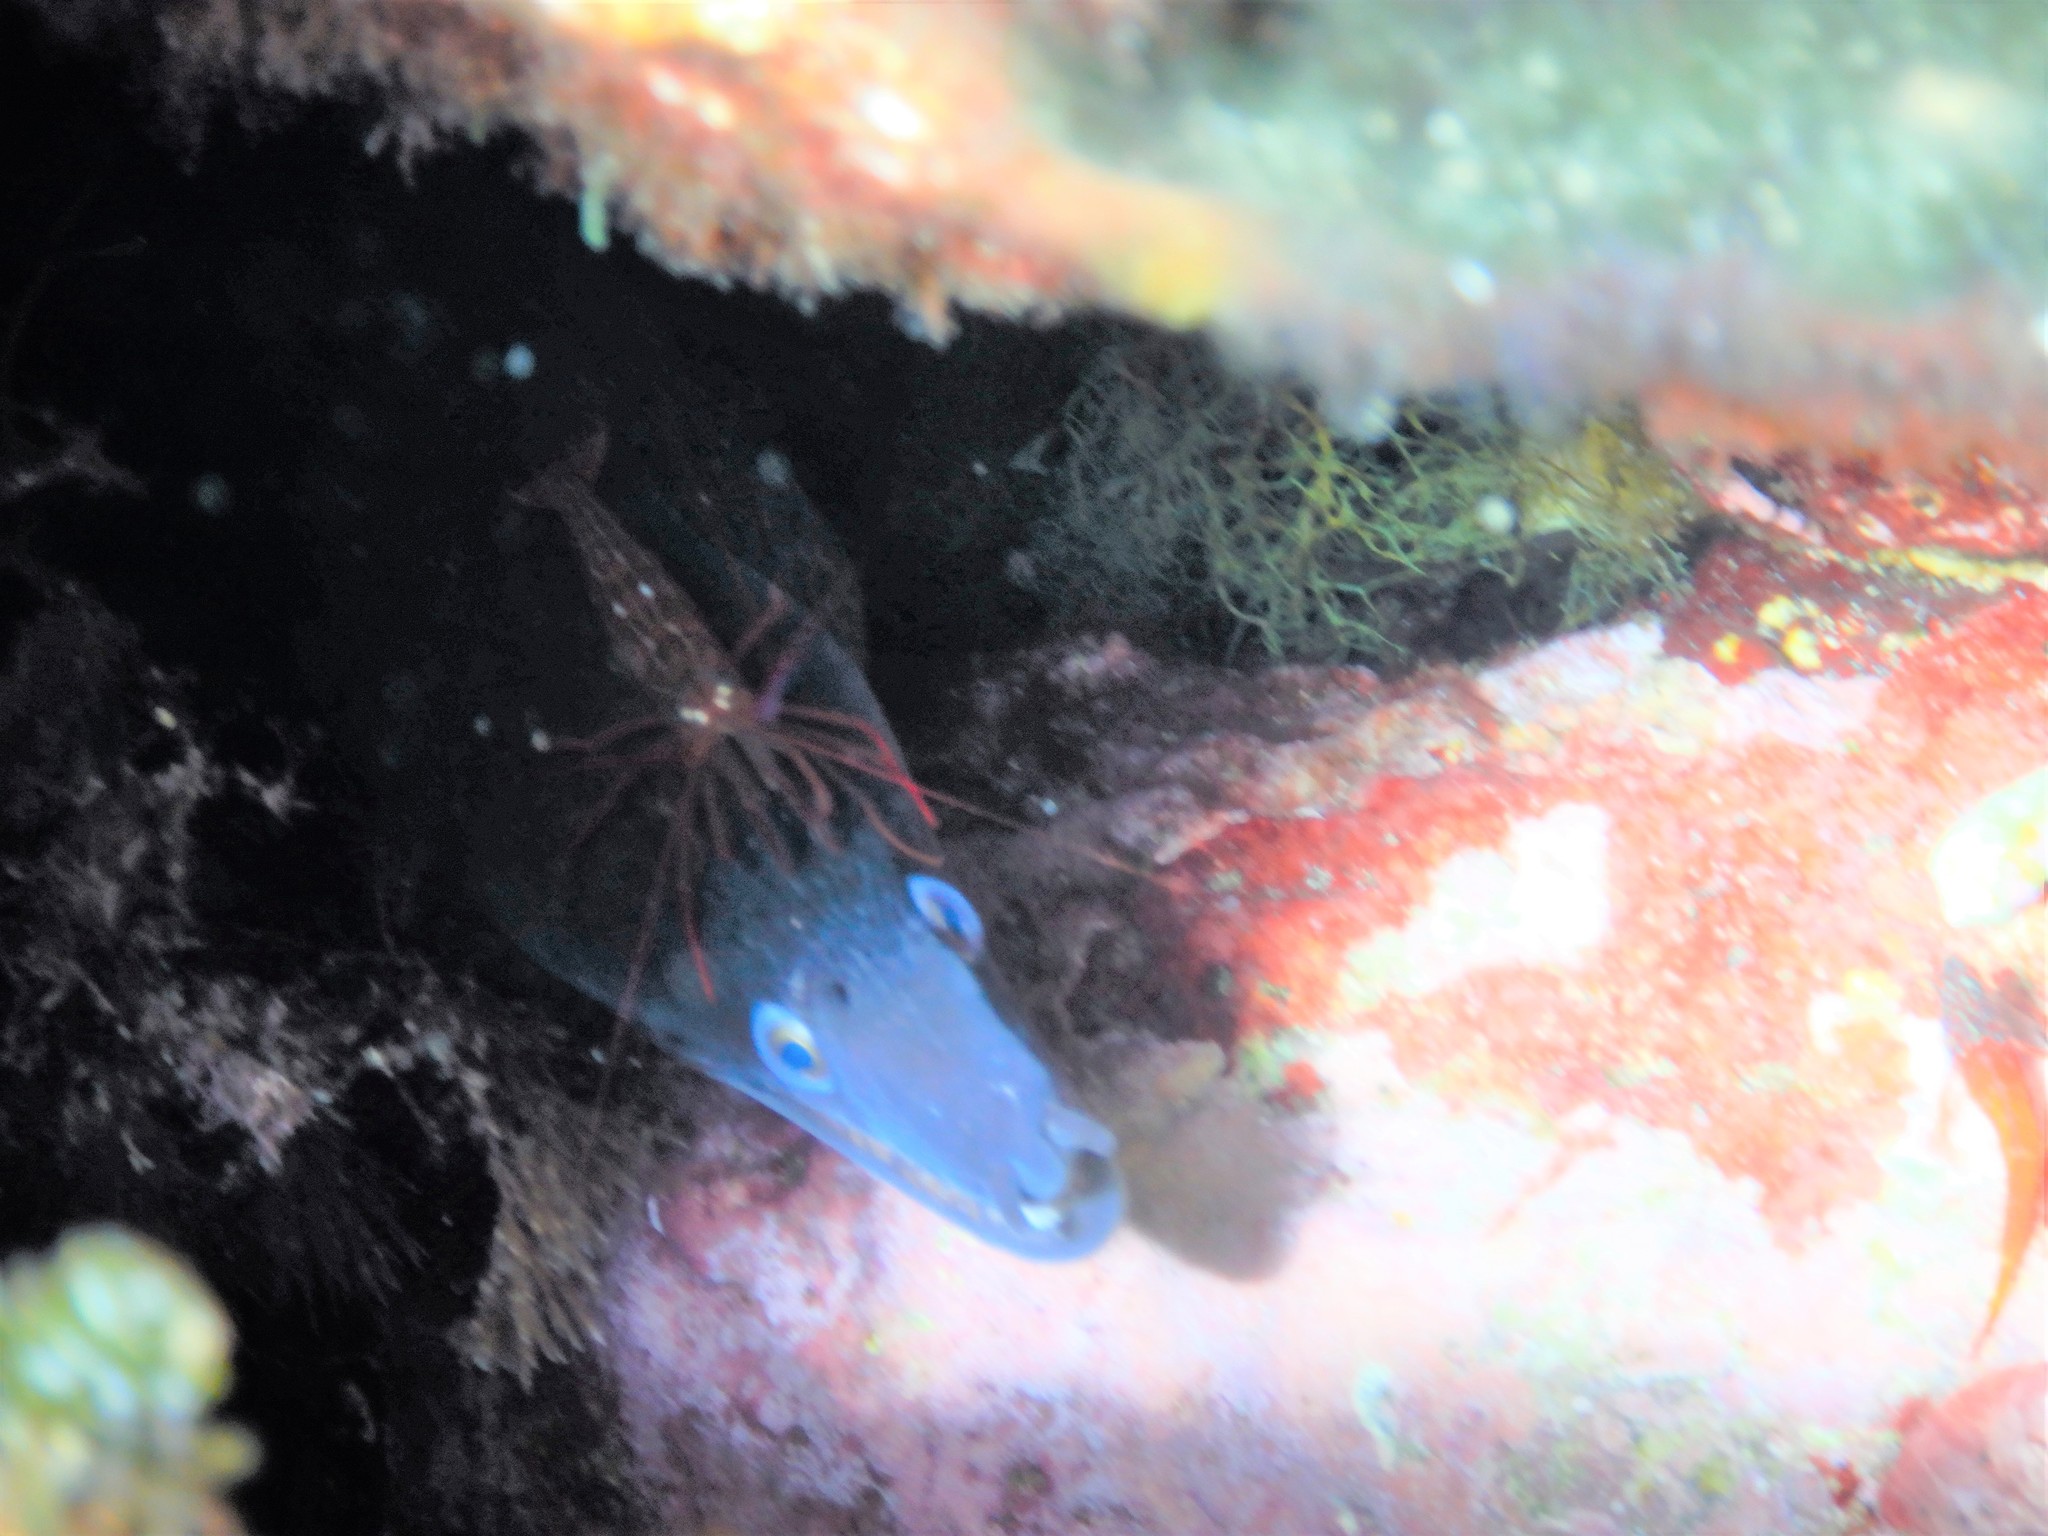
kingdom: Animalia
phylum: Arthropoda
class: Malacostraca
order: Decapoda
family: Lysmatidae
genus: Lysmata
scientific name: Lysmata seticaudata
